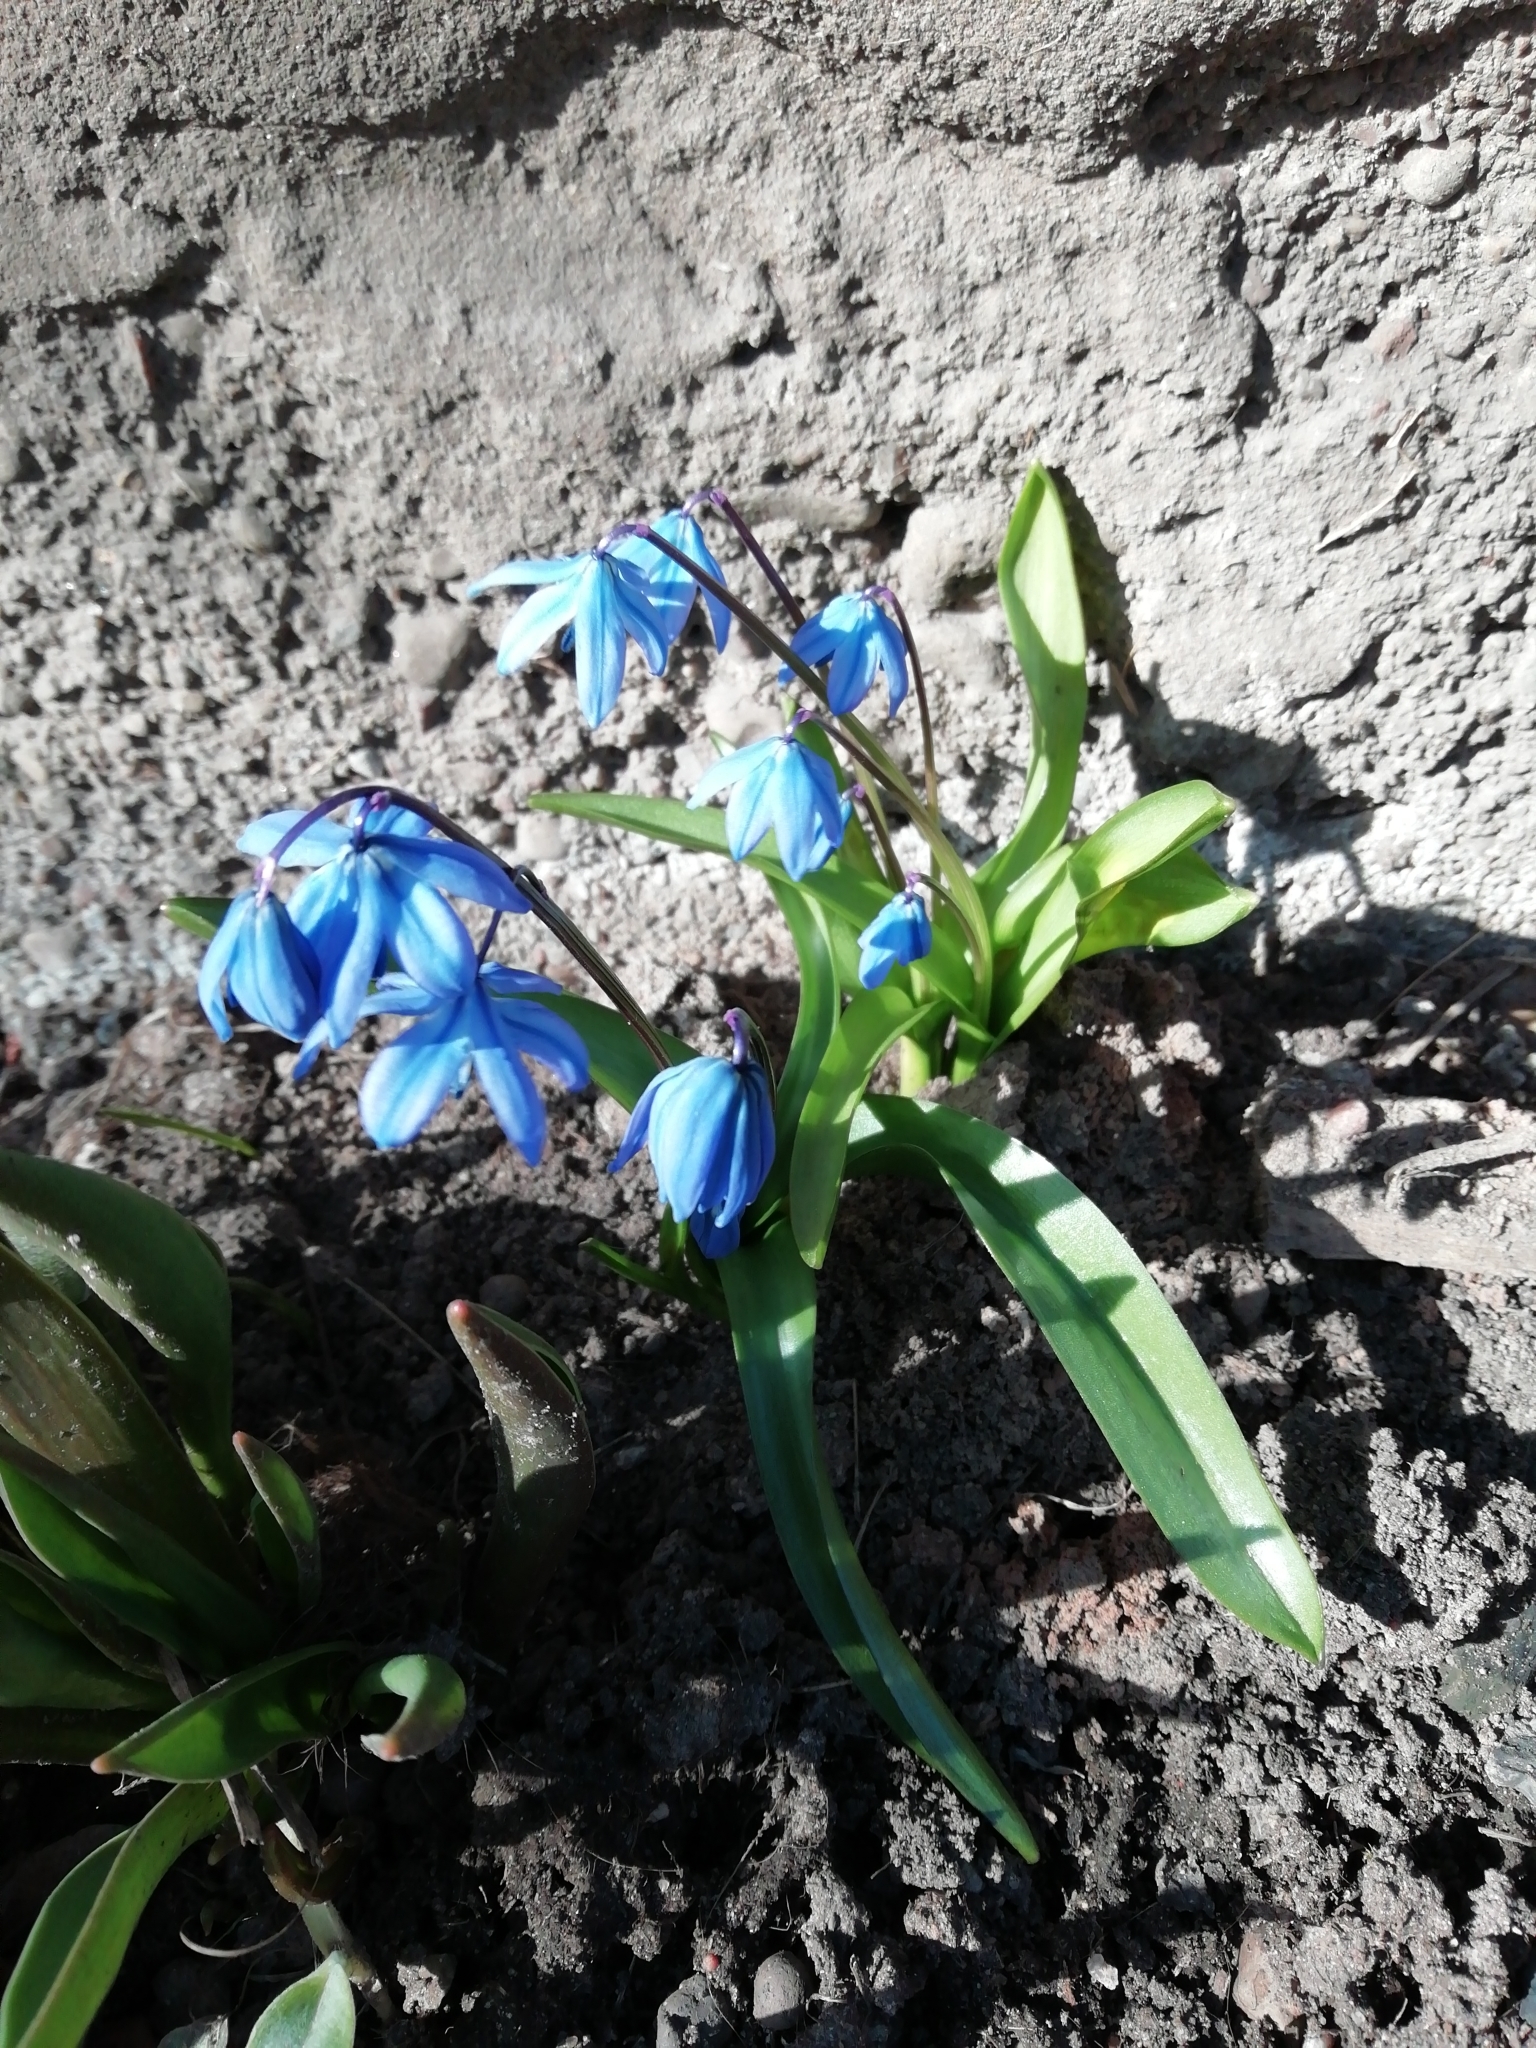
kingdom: Plantae
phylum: Tracheophyta
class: Liliopsida
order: Asparagales
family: Asparagaceae
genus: Scilla
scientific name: Scilla siberica
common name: Siberian squill
